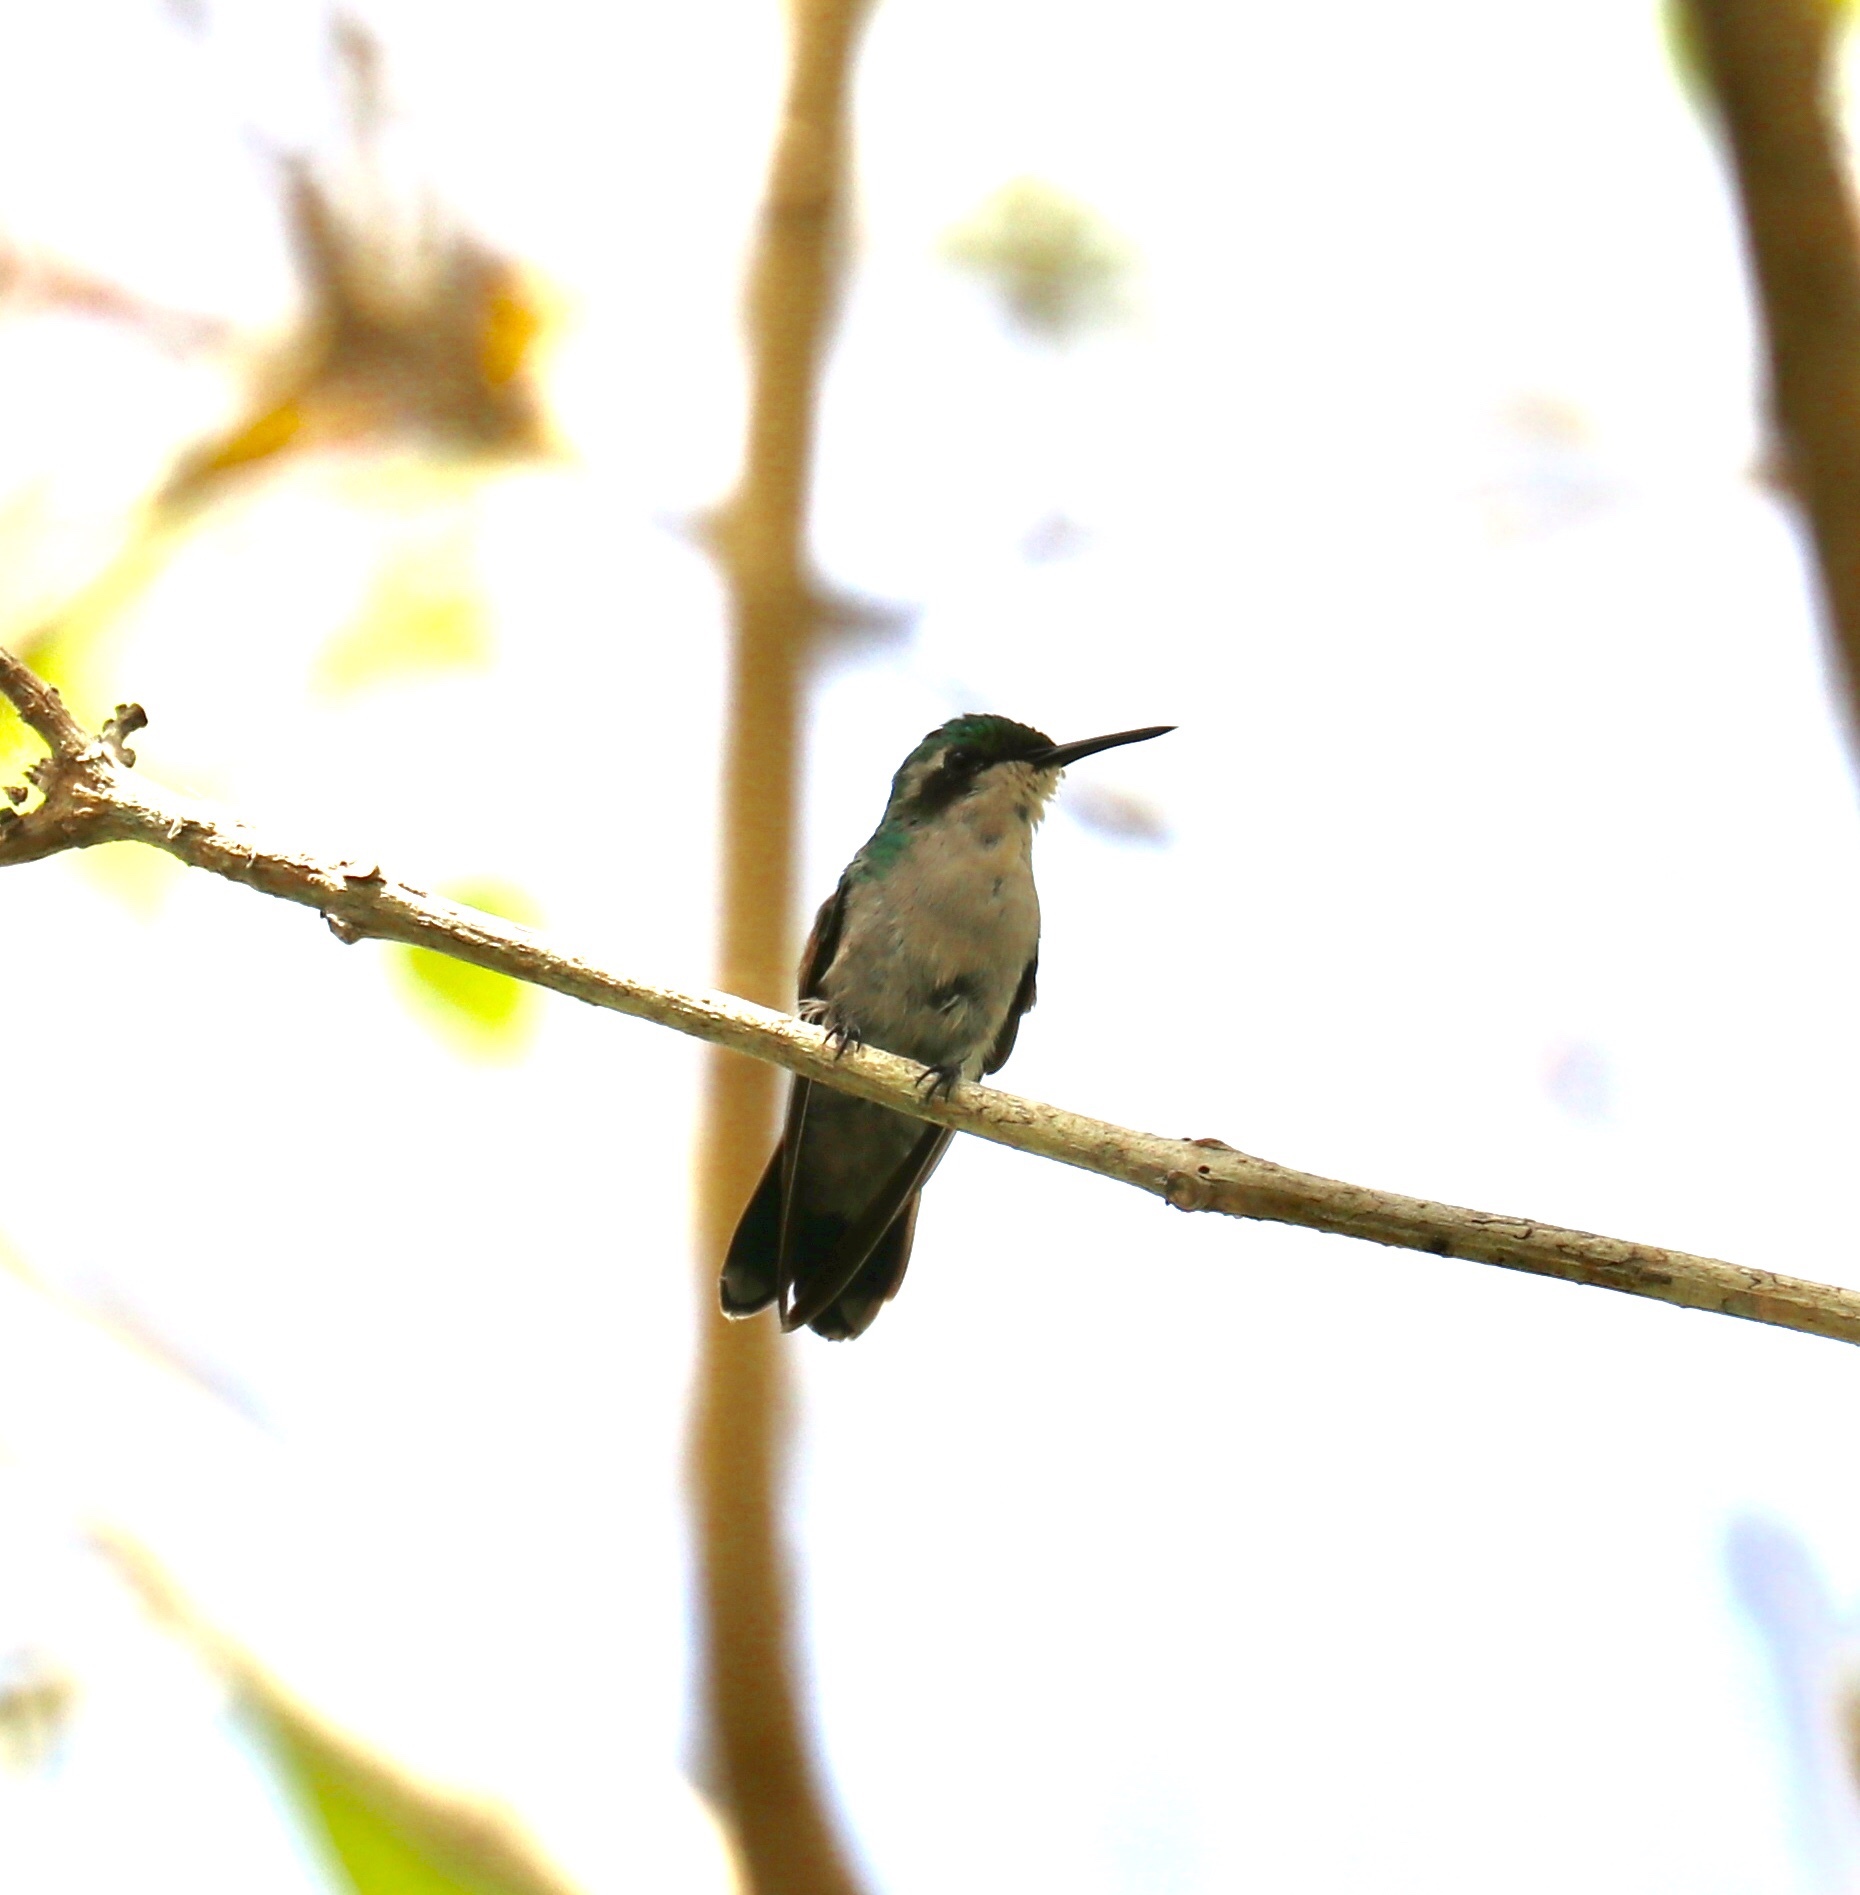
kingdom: Animalia
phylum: Chordata
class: Aves
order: Apodiformes
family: Trochilidae
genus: Chlorostilbon
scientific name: Chlorostilbon assimilis
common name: Garden emerald
